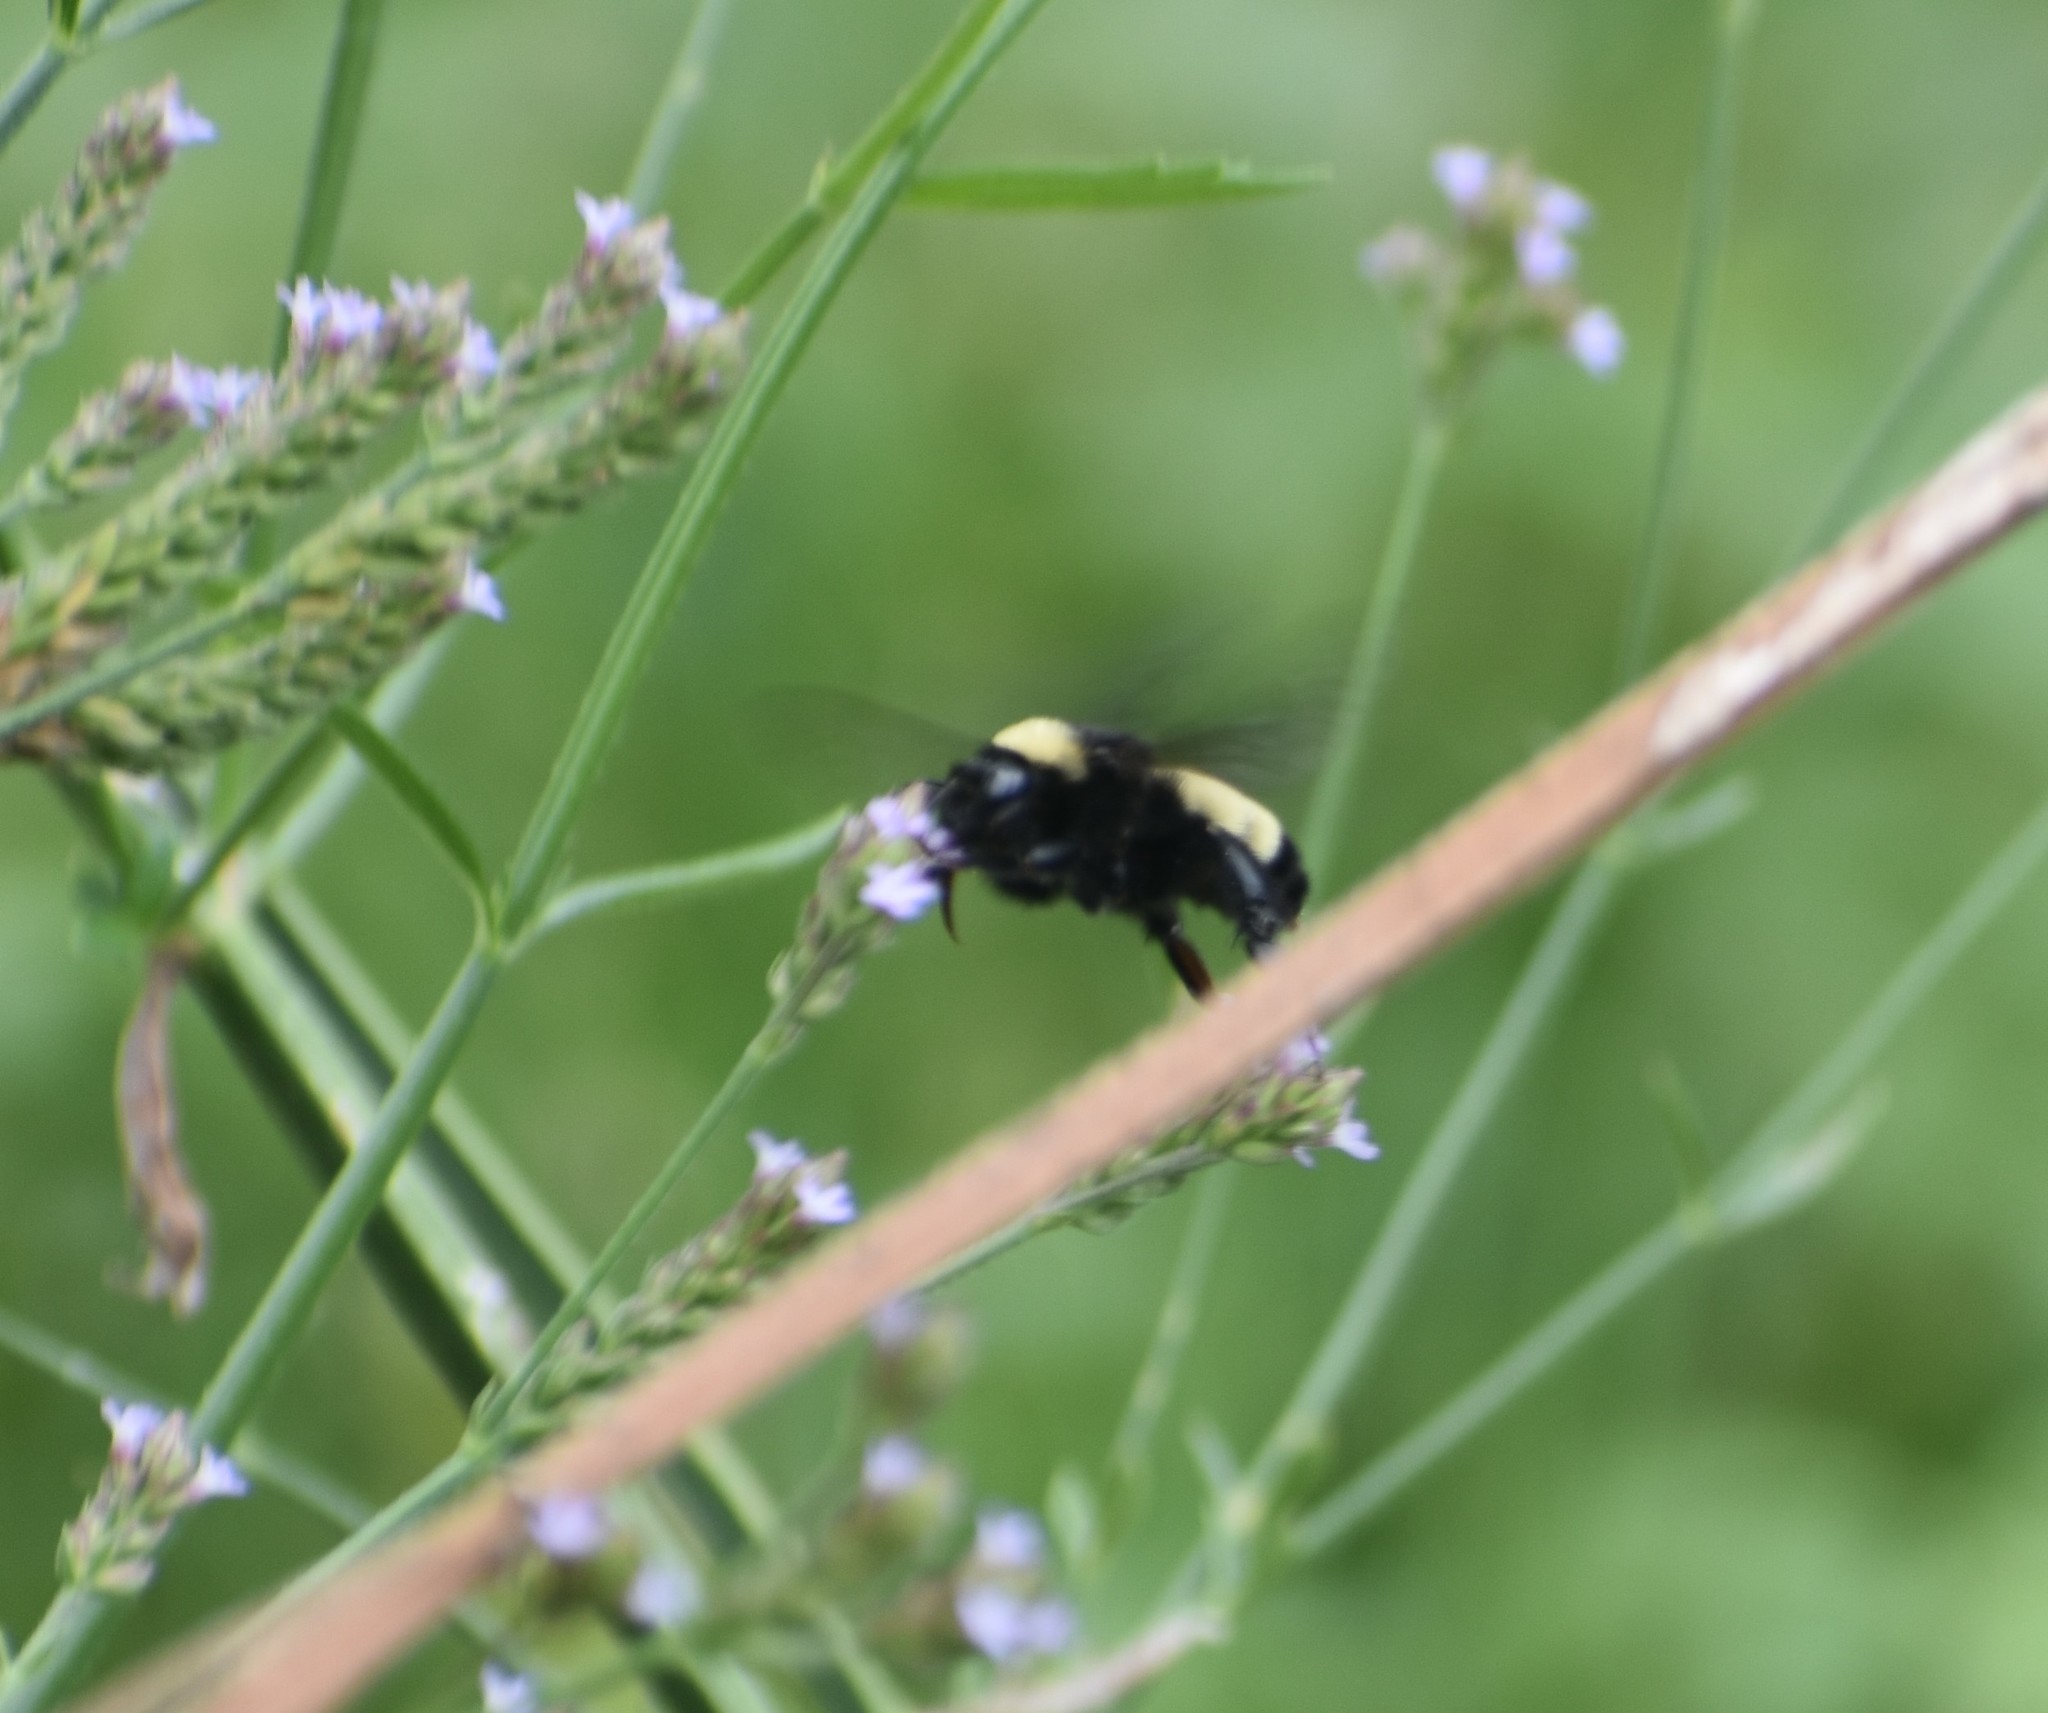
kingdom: Animalia
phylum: Arthropoda
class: Insecta
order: Hymenoptera
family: Apidae
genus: Bombus
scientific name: Bombus pensylvanicus
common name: Bumble bee
